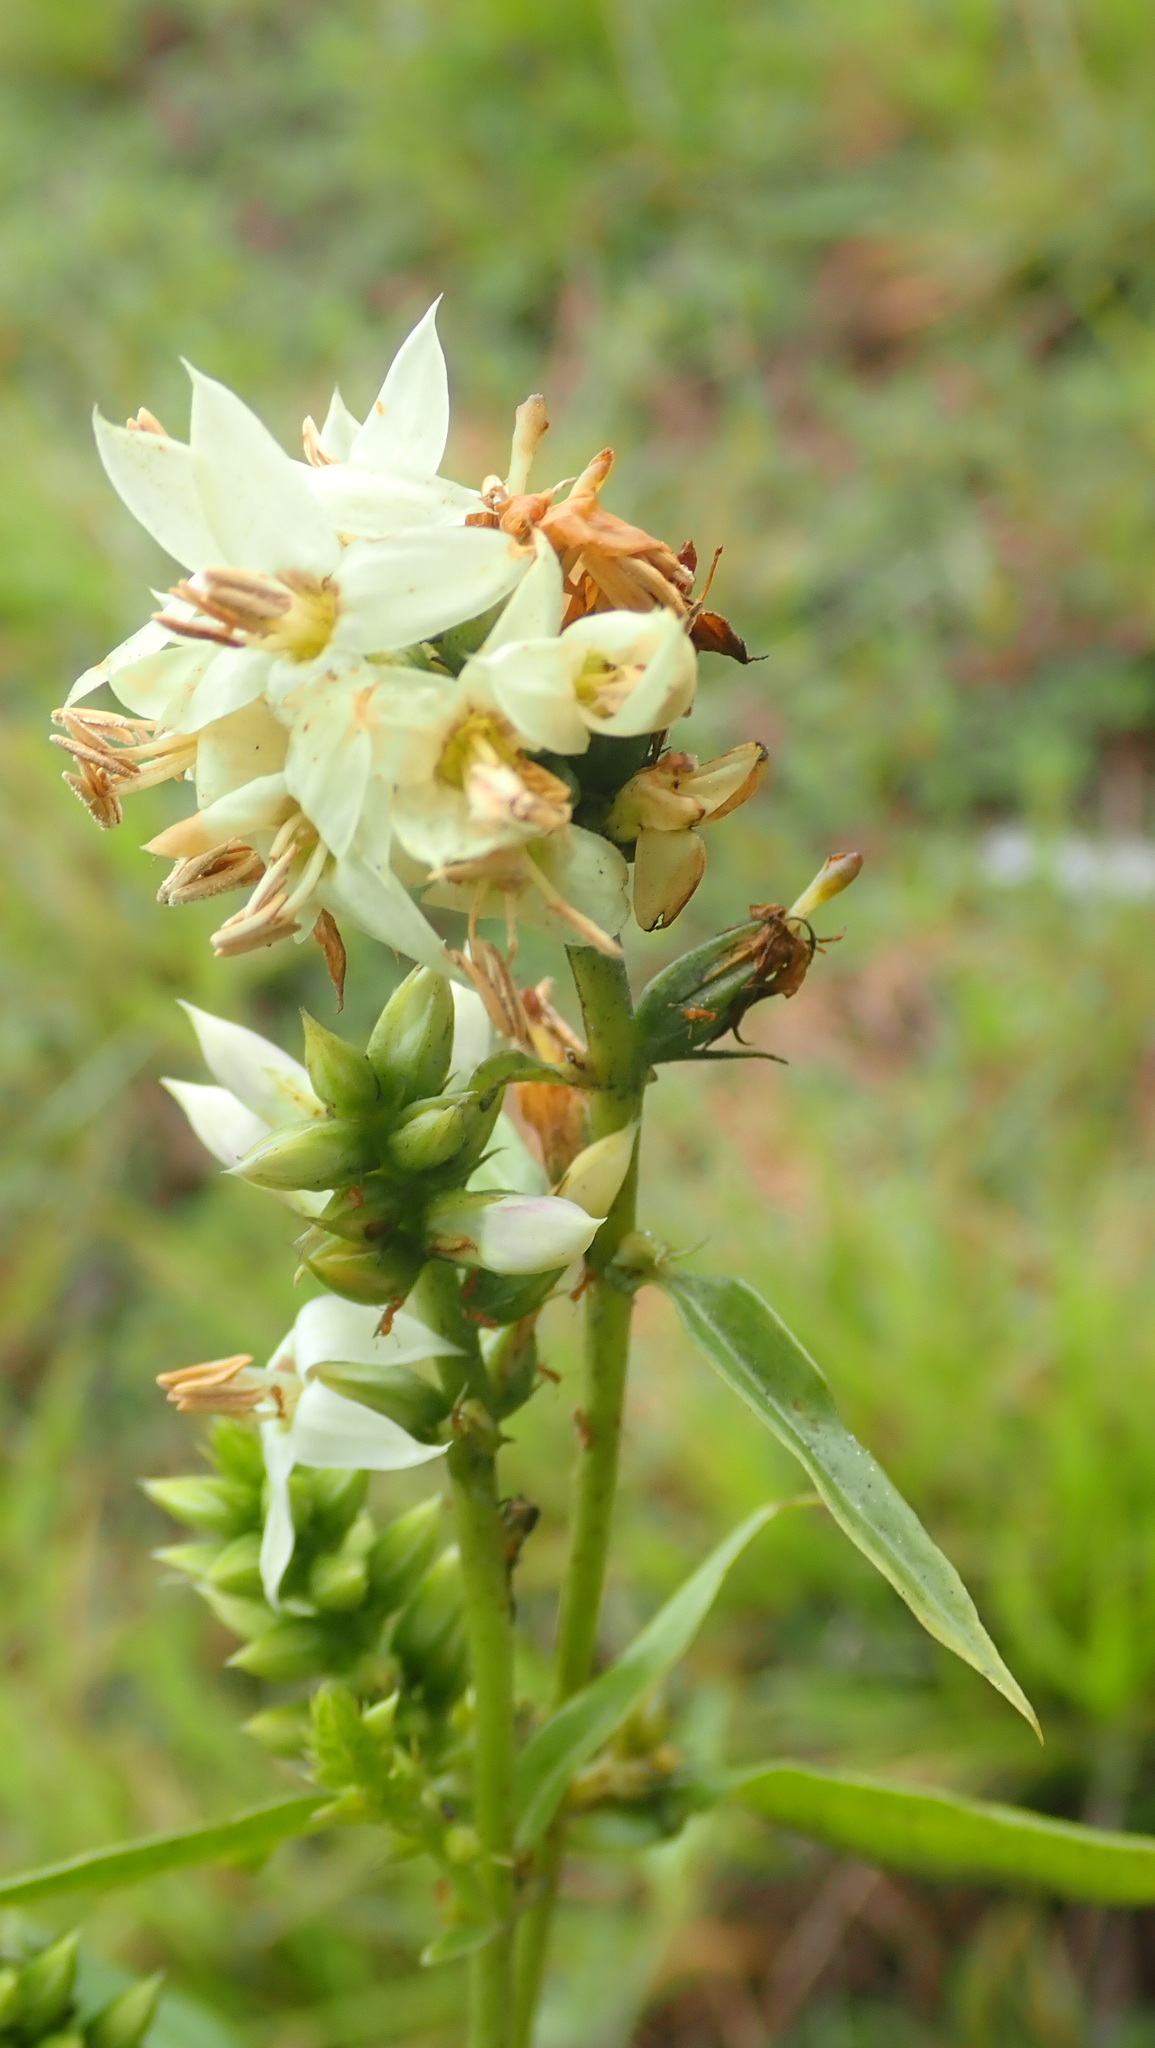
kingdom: Plantae
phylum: Tracheophyta
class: Magnoliopsida
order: Gentianales
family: Gentianaceae
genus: Coutoubea
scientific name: Coutoubea spicata
